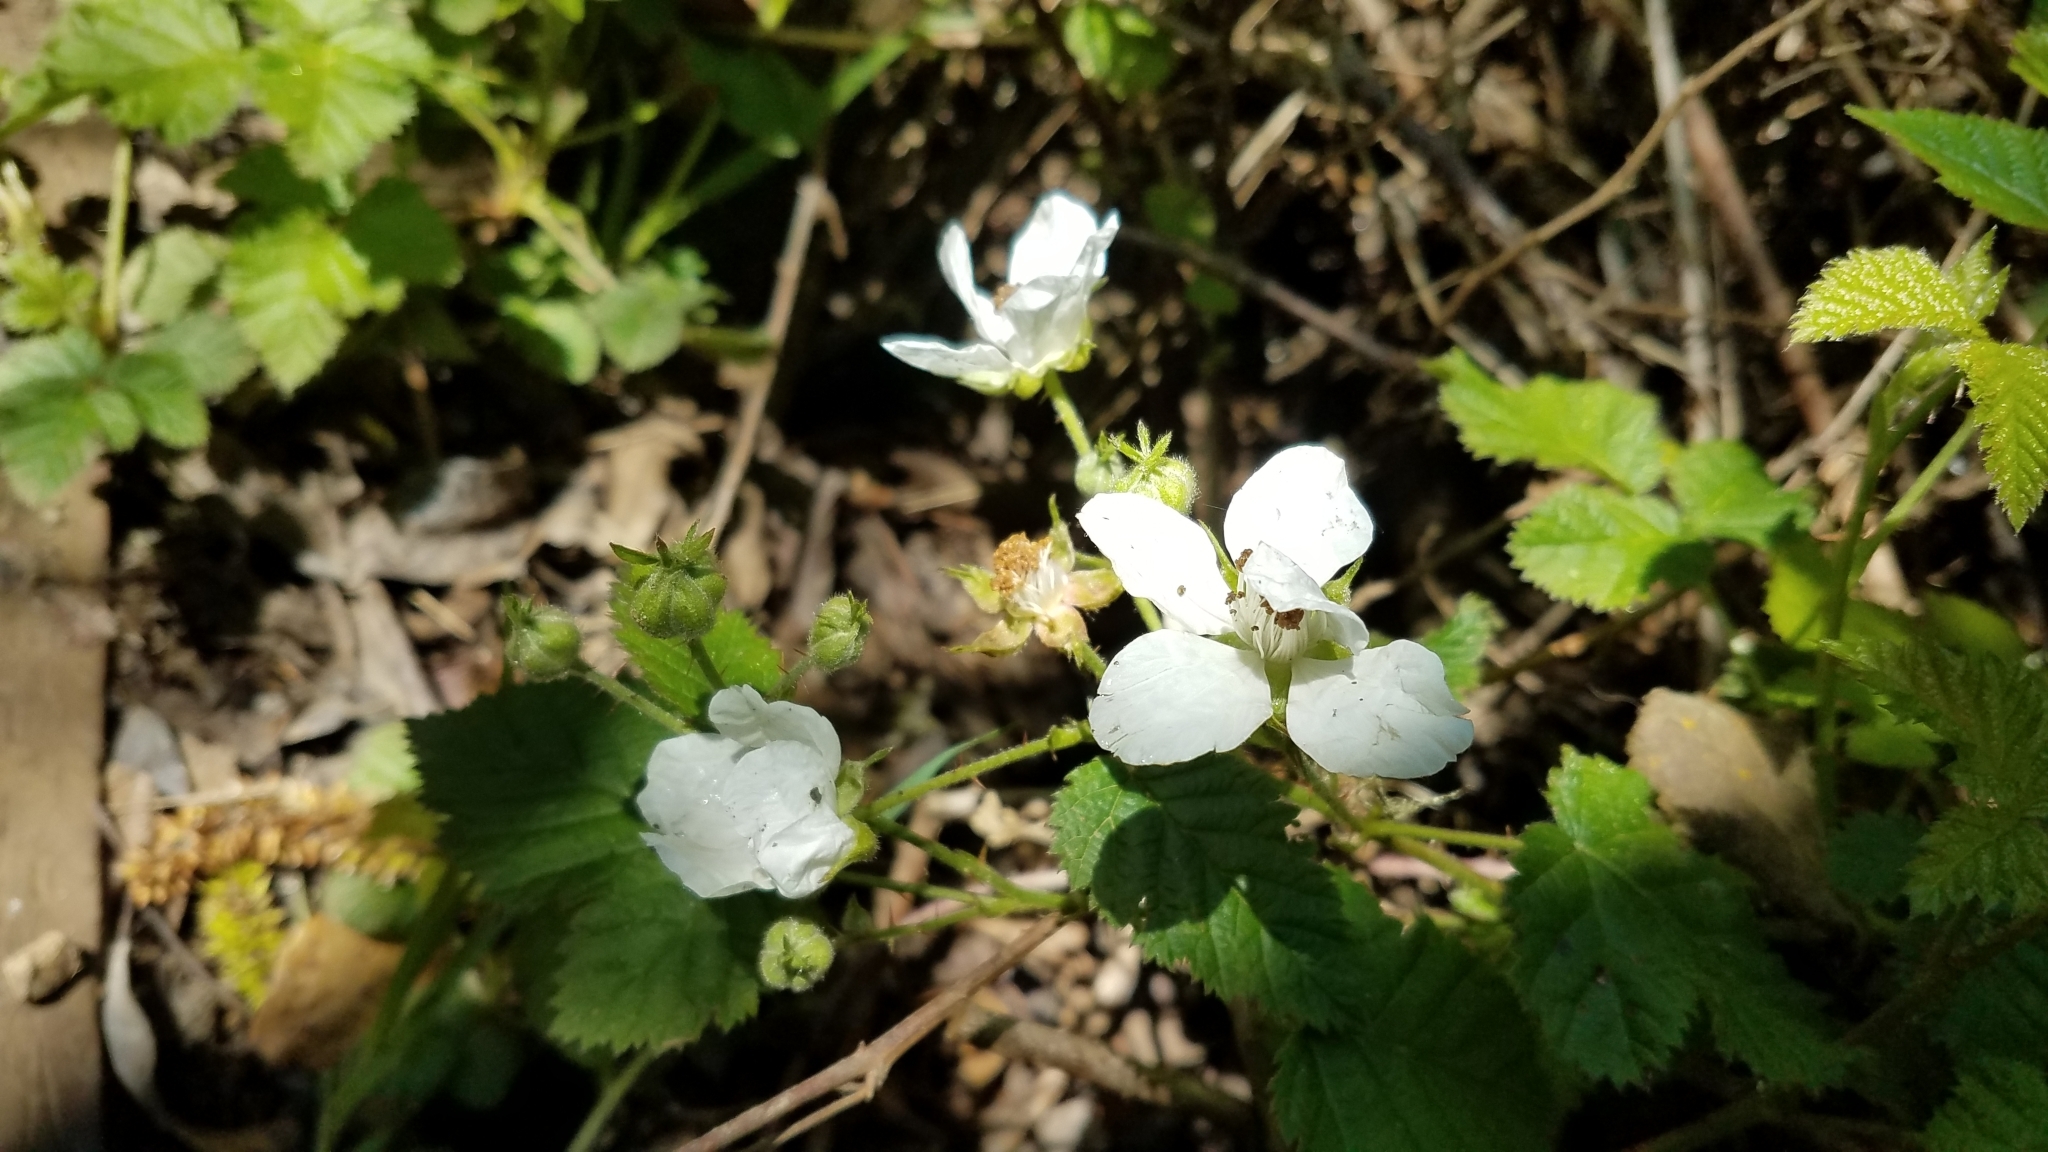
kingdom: Plantae
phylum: Tracheophyta
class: Magnoliopsida
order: Rosales
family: Rosaceae
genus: Rubus
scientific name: Rubus ursinus
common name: Pacific blackberry
